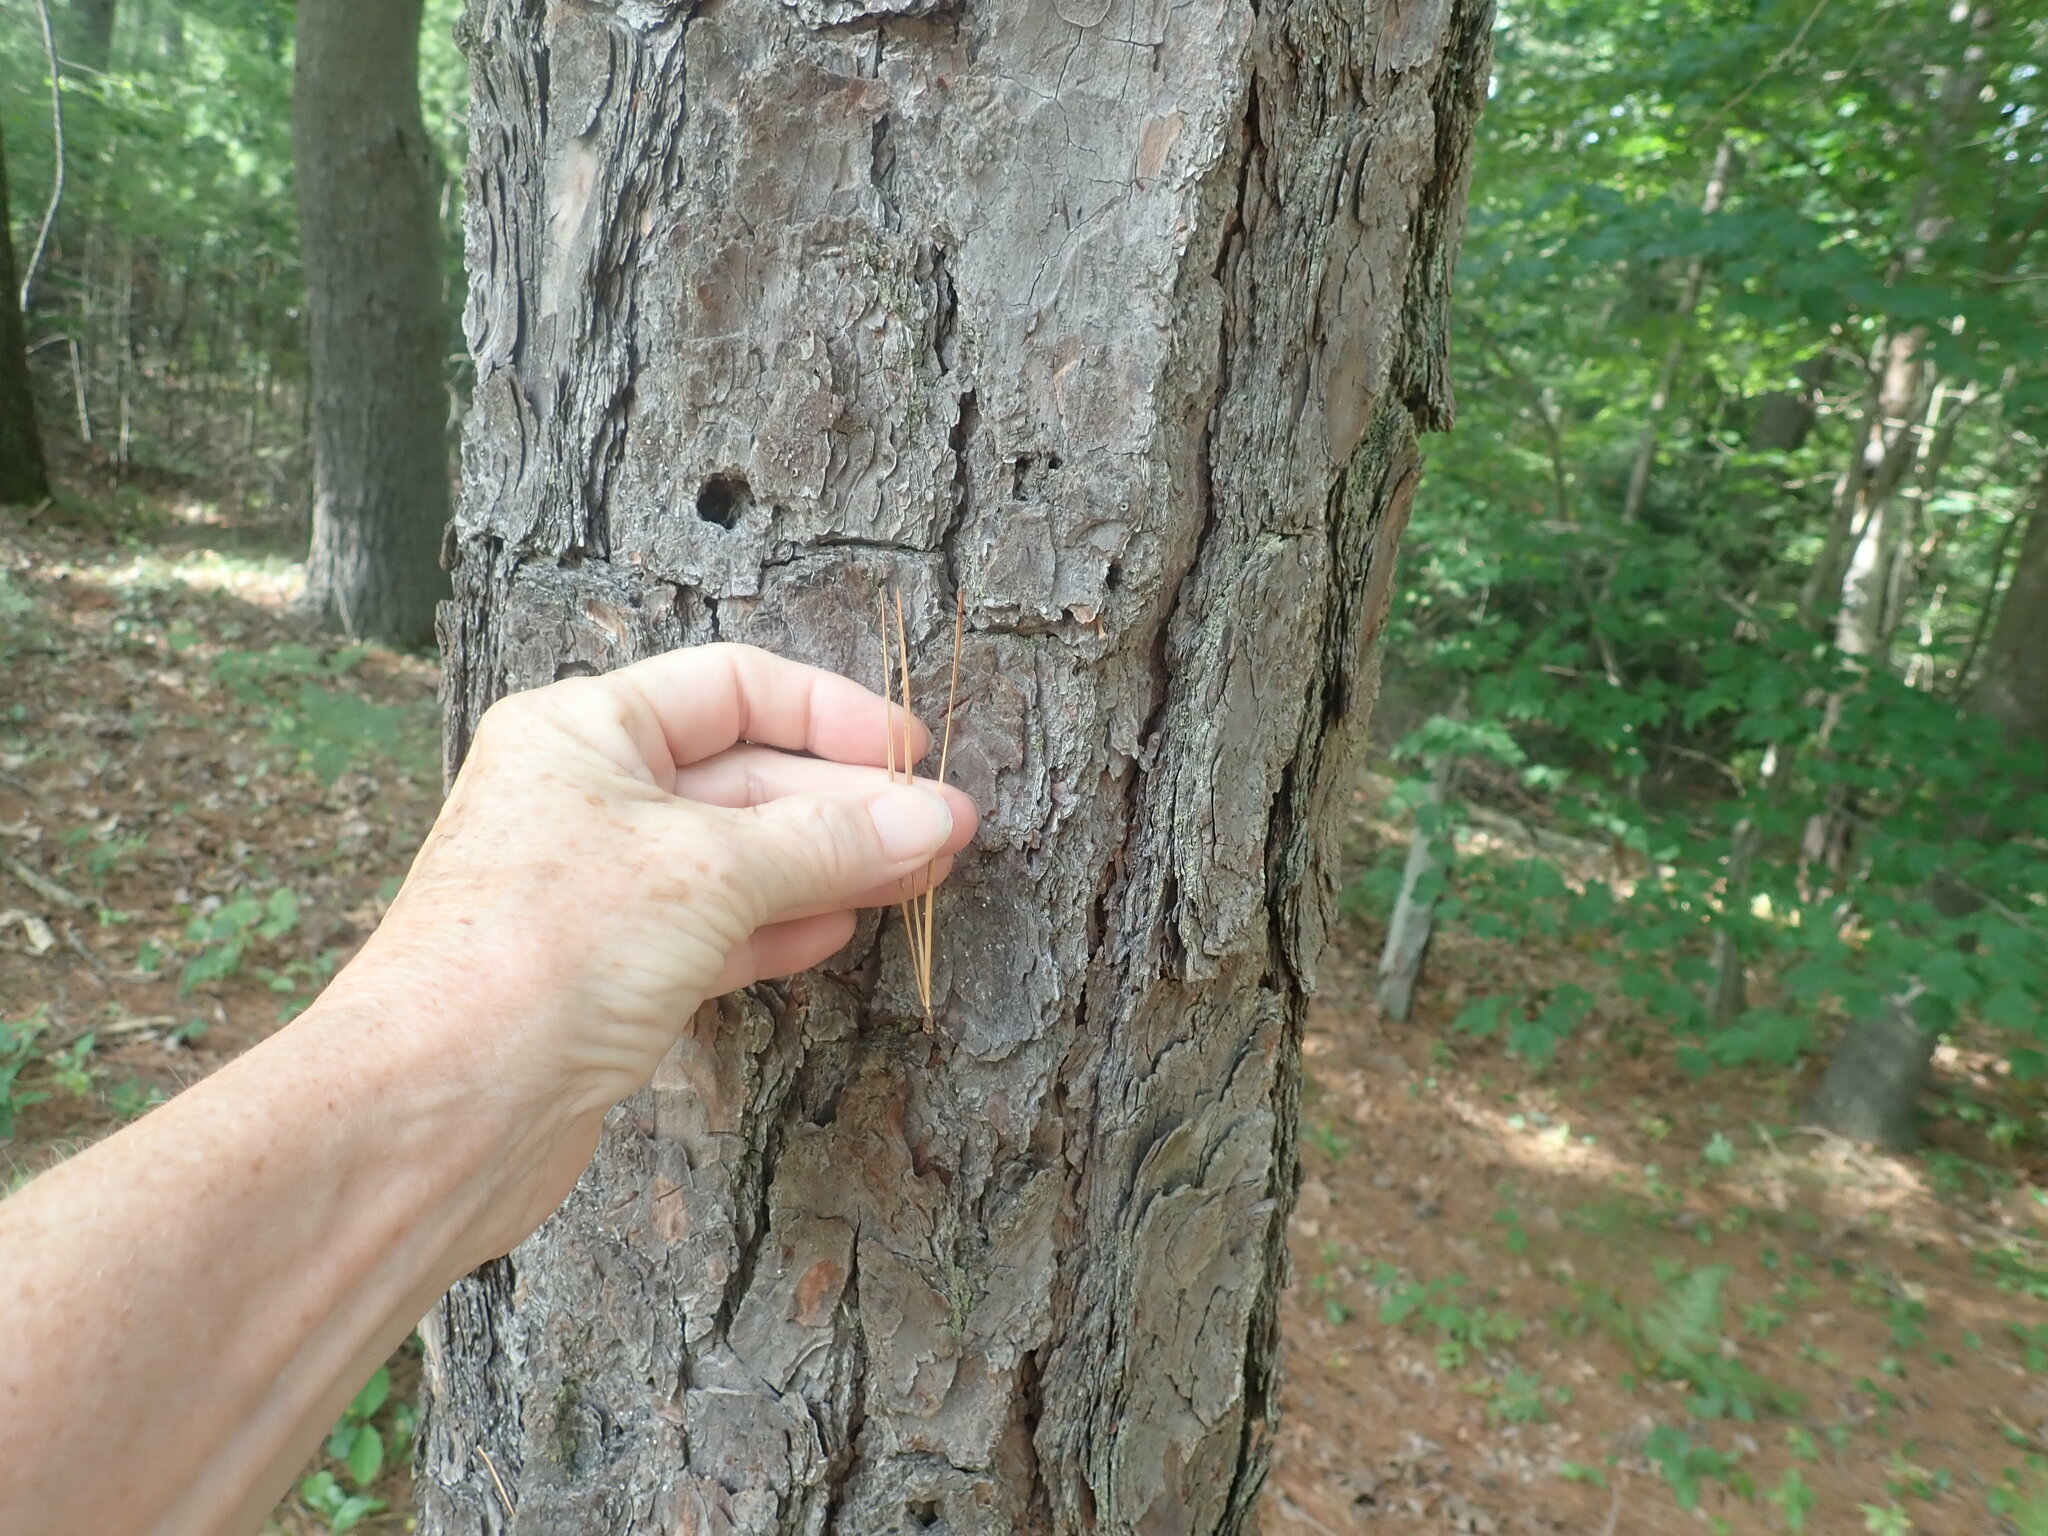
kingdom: Plantae
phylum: Tracheophyta
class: Pinopsida
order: Pinales
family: Pinaceae
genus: Pinus
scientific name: Pinus rigida
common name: Pitch pine
